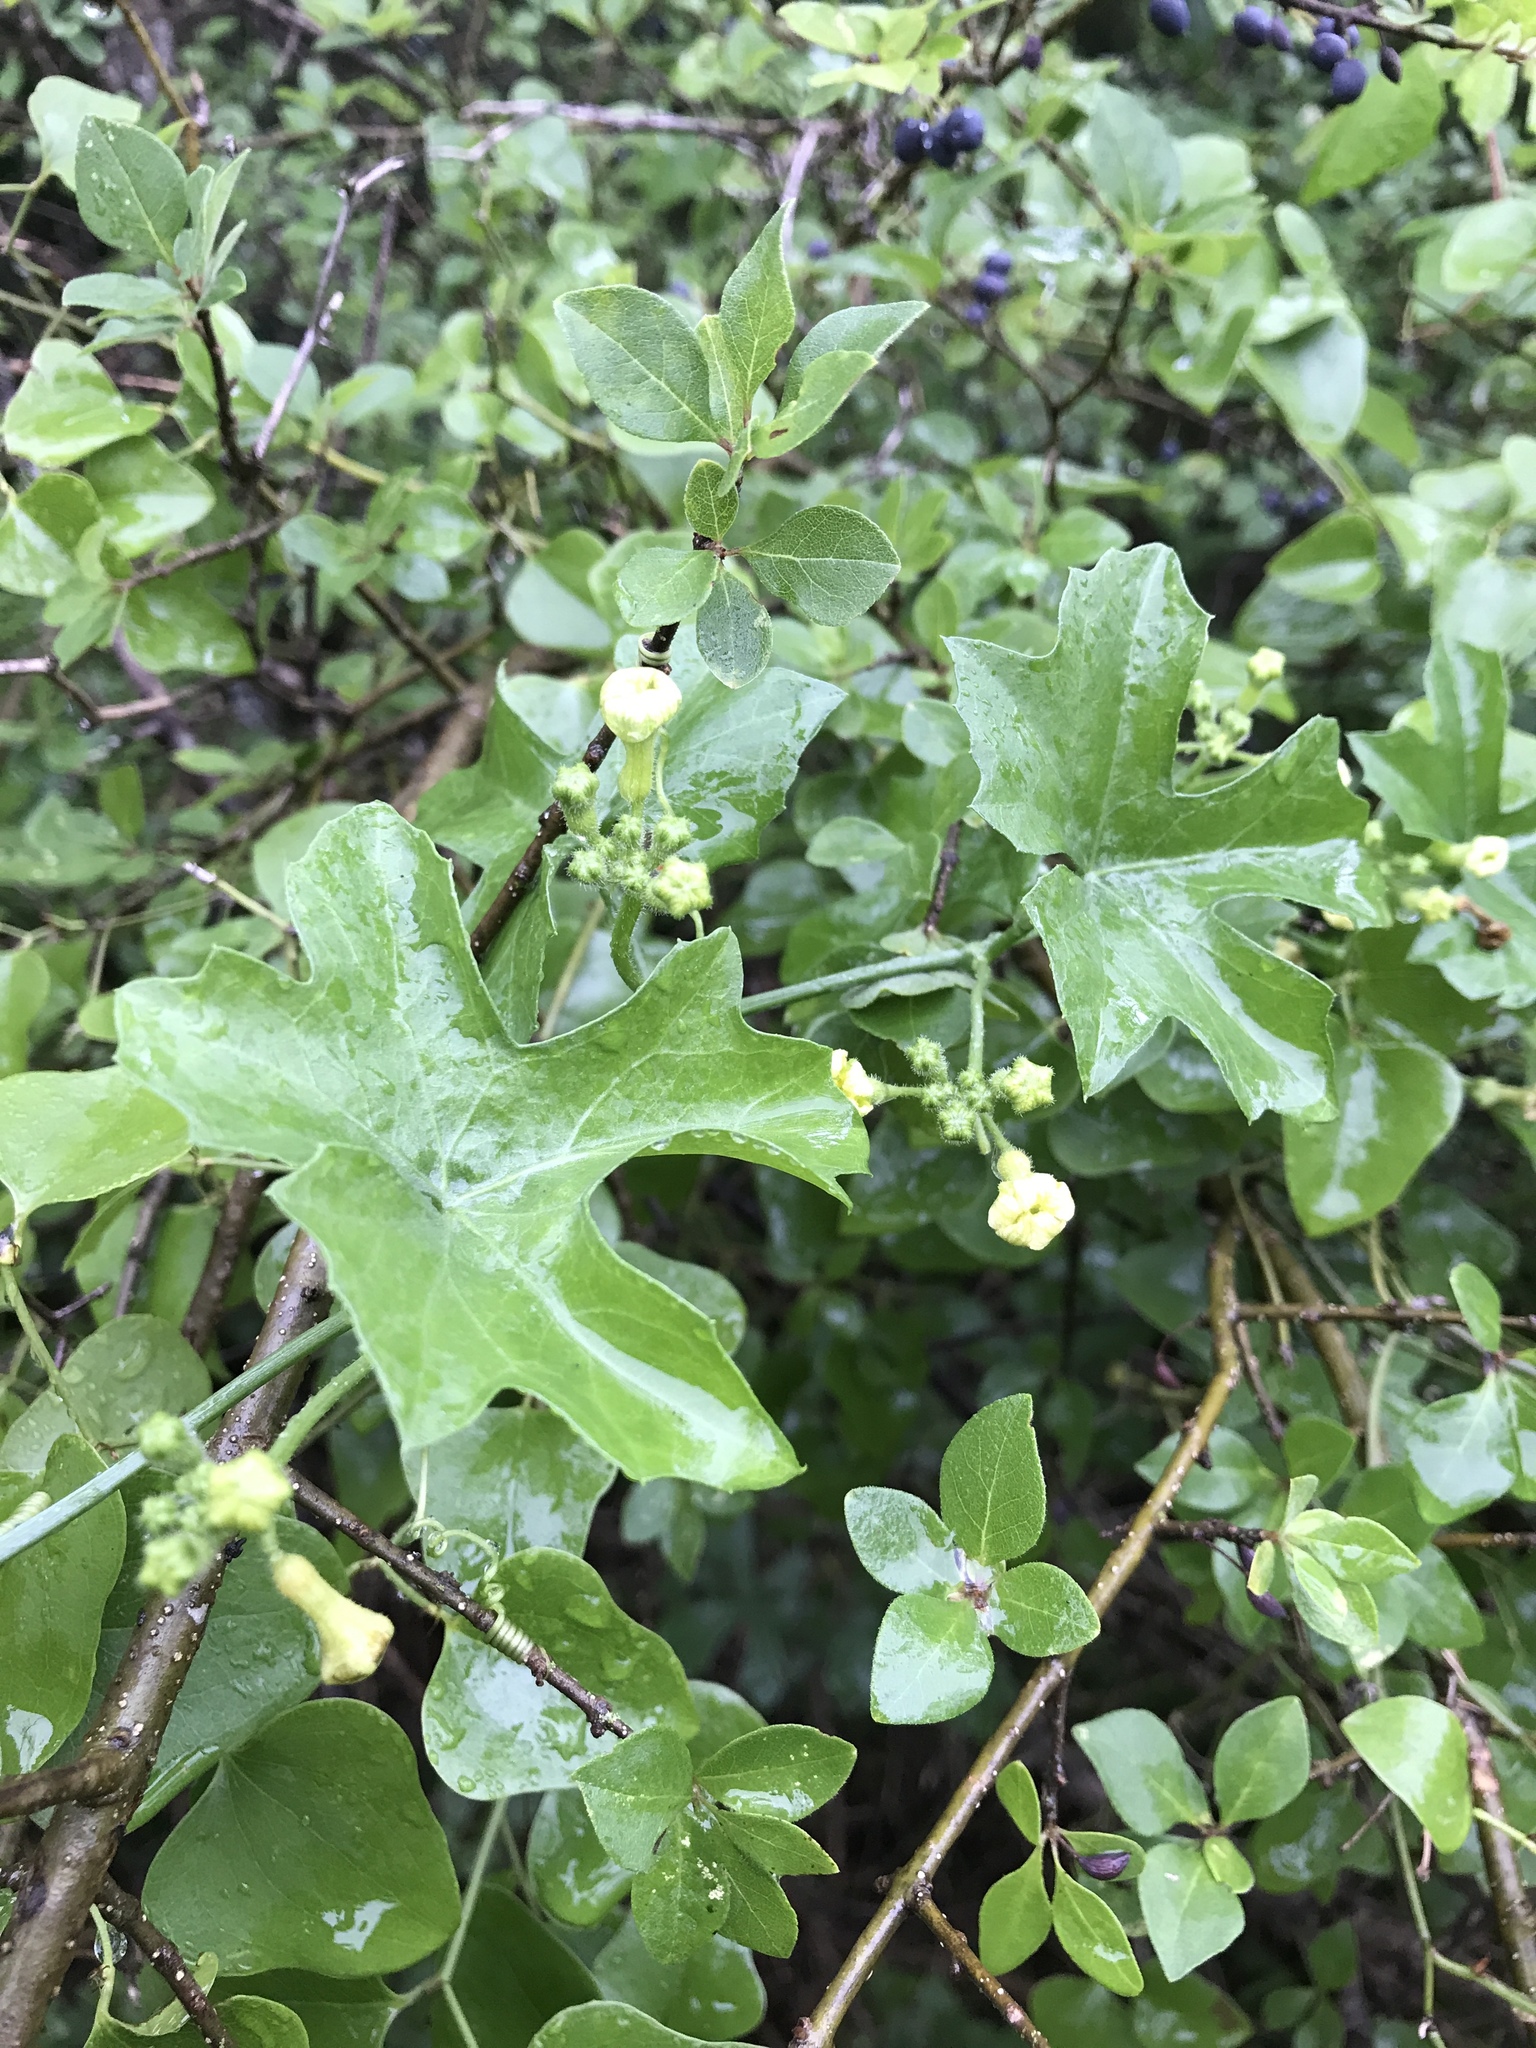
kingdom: Plantae
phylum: Tracheophyta
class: Magnoliopsida
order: Cucurbitales
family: Cucurbitaceae
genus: Ibervillea
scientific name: Ibervillea lindheimeri
